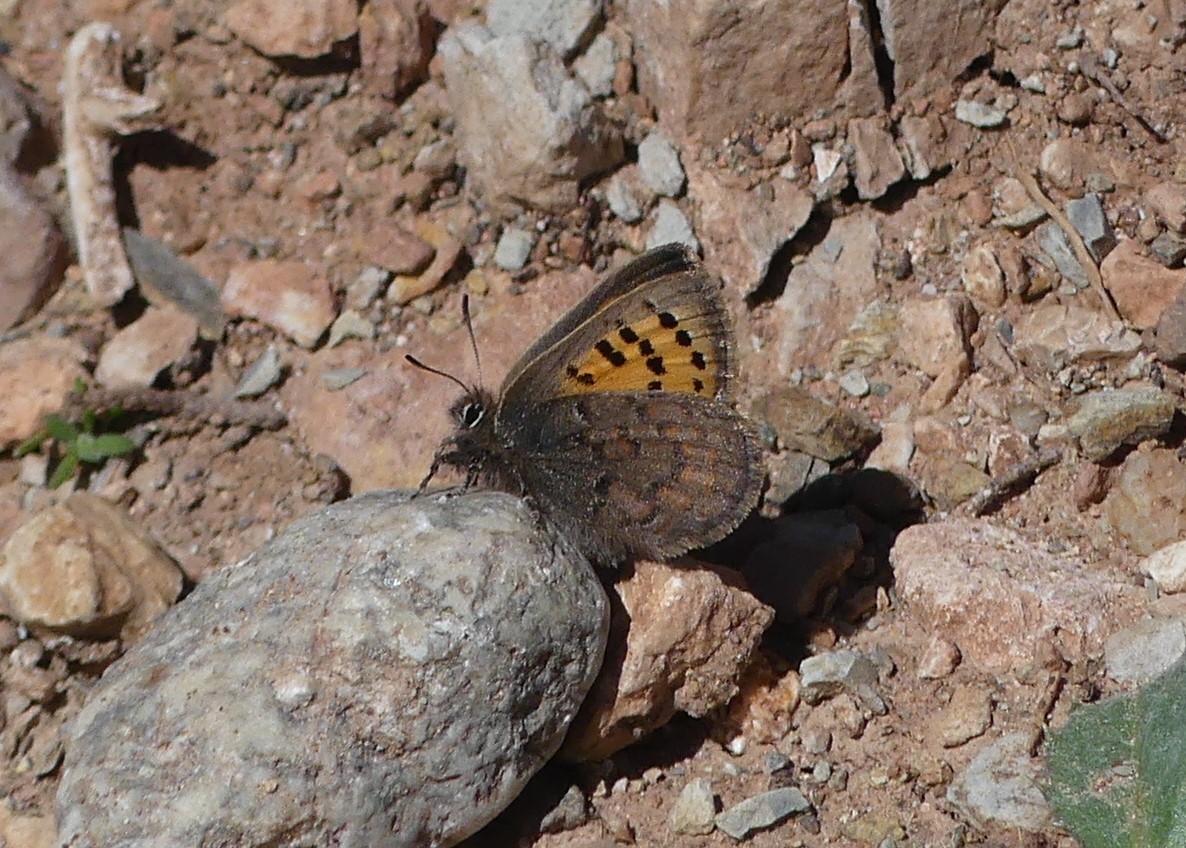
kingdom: Animalia
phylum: Arthropoda
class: Insecta
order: Lepidoptera
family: Lycaenidae
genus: Tomares
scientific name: Tomares mauritanicus
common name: Moroccan hairstreak
